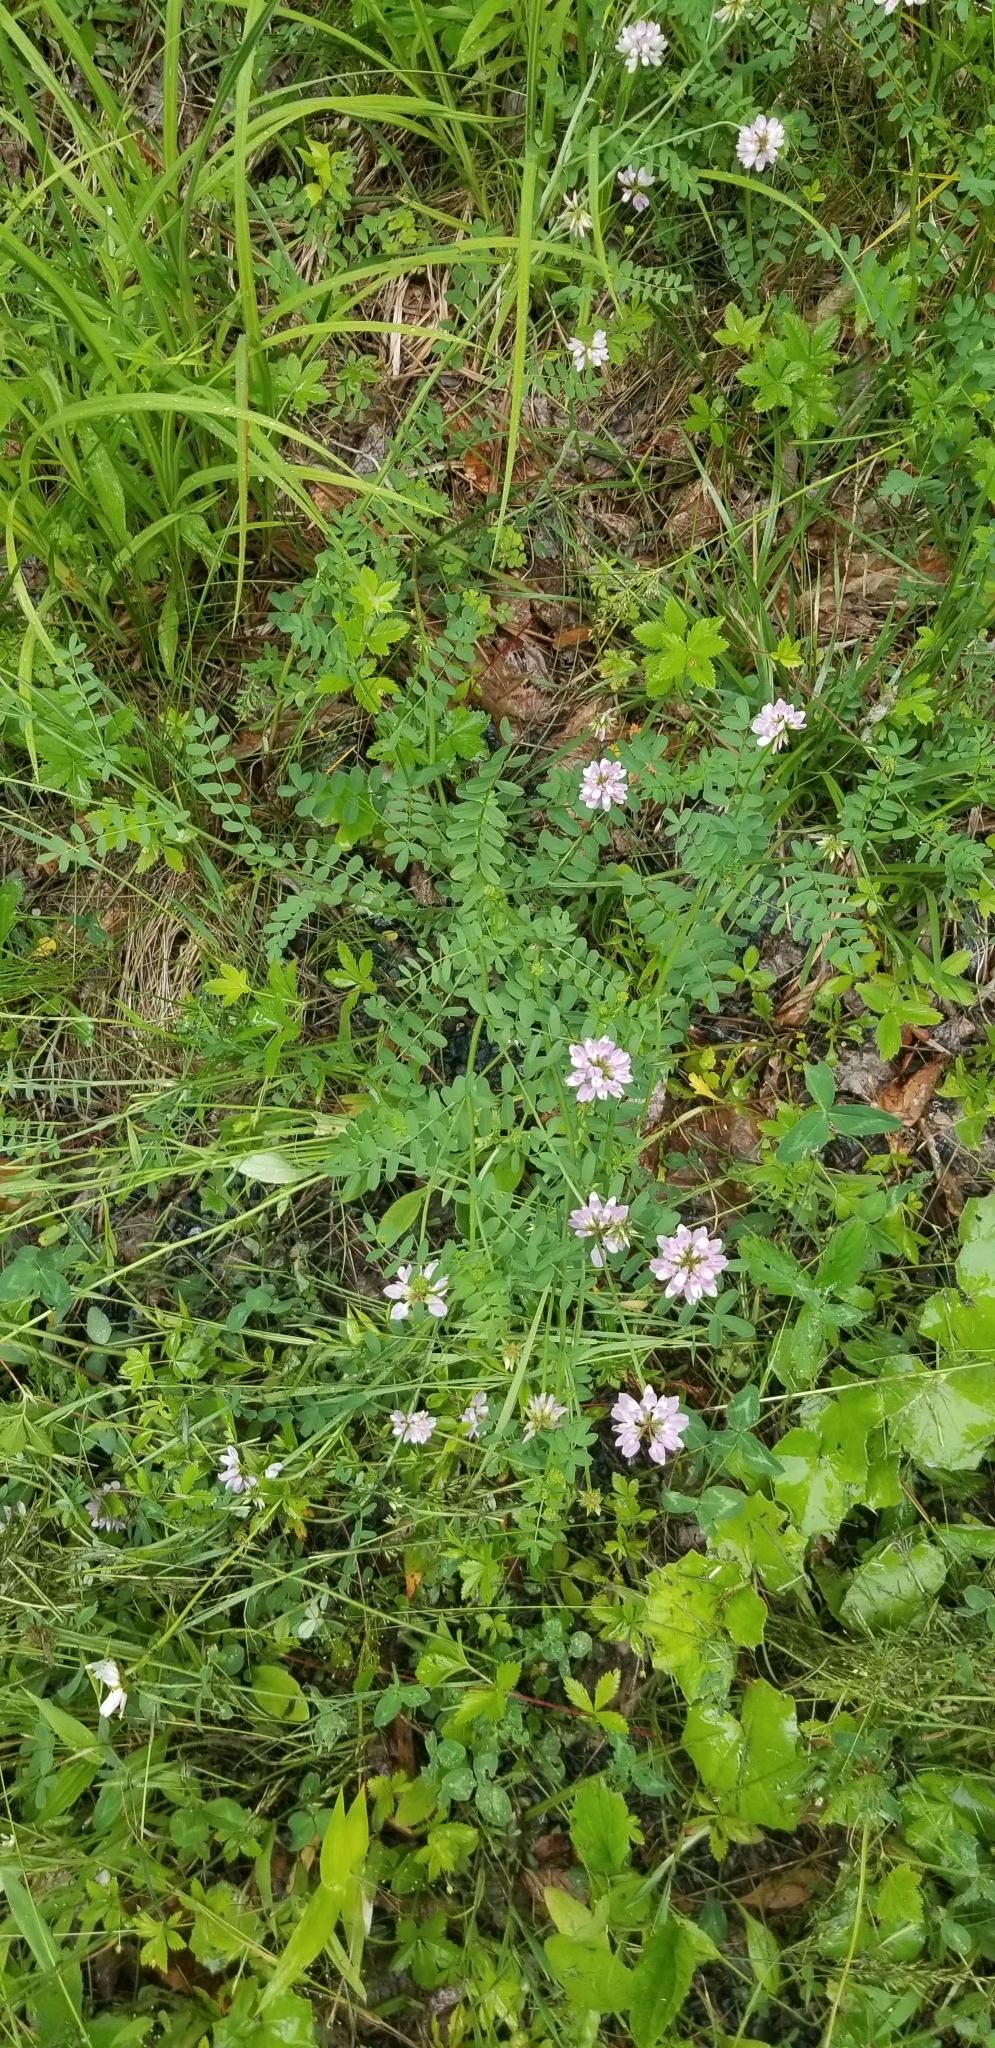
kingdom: Plantae
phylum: Tracheophyta
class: Magnoliopsida
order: Fabales
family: Fabaceae
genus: Coronilla
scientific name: Coronilla varia
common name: Crownvetch
